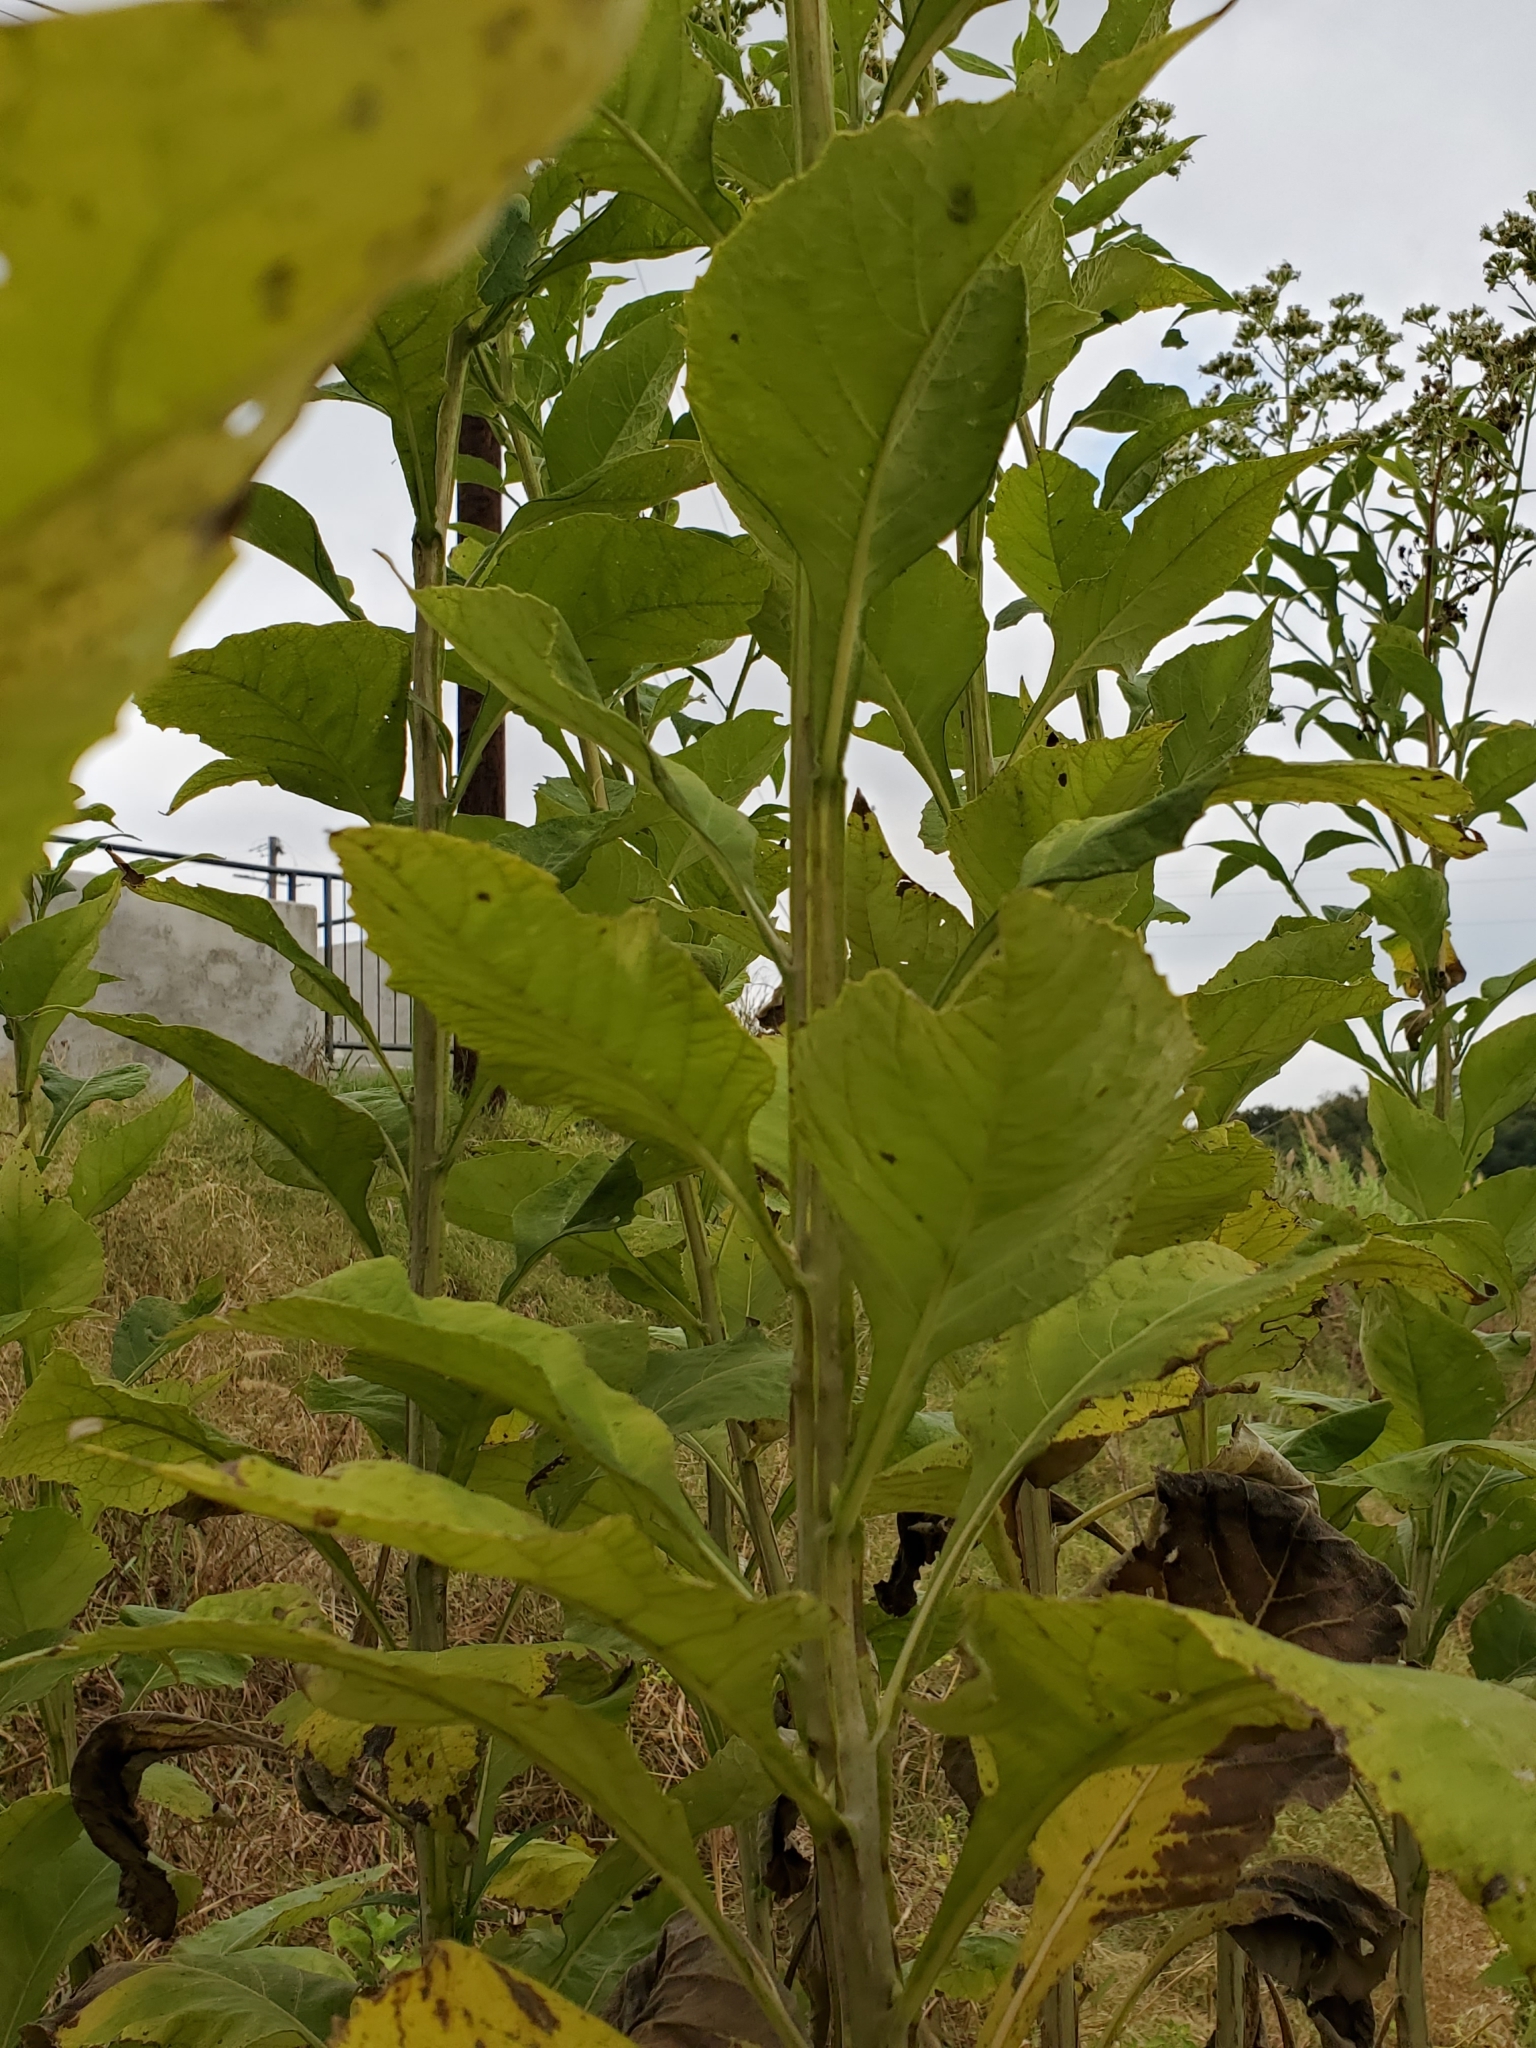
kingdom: Plantae
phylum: Tracheophyta
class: Magnoliopsida
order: Asterales
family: Asteraceae
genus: Verbesina
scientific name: Verbesina virginica
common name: Frostweed
